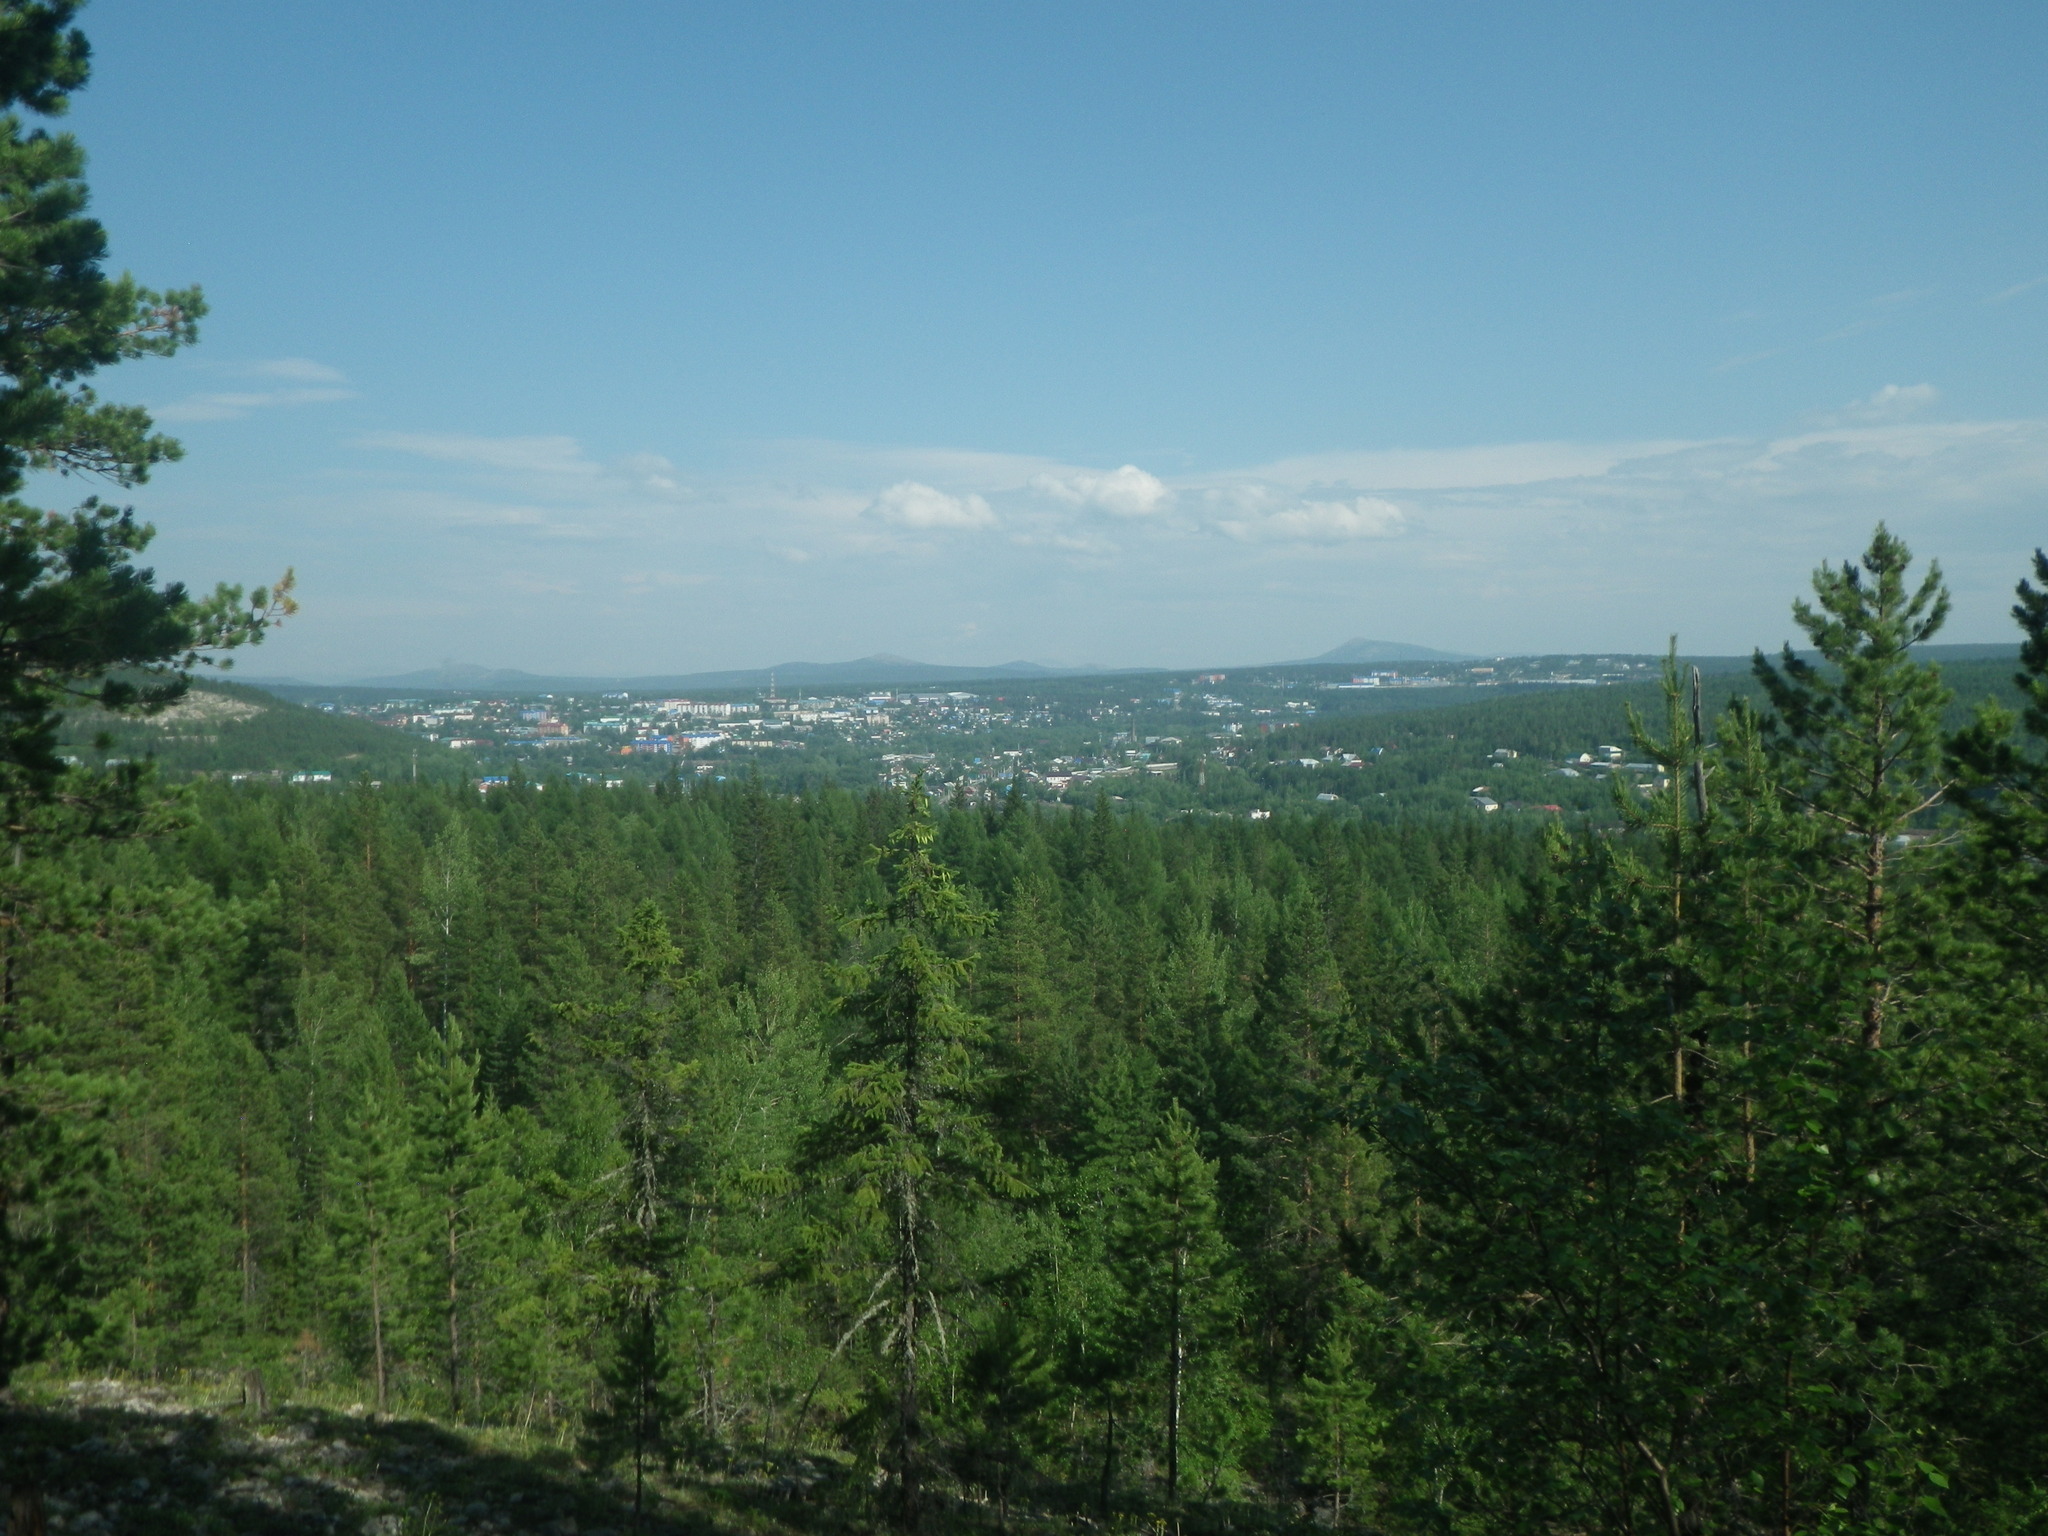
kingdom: Plantae
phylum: Tracheophyta
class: Pinopsida
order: Pinales
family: Pinaceae
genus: Pinus
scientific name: Pinus sylvestris
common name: Scots pine
